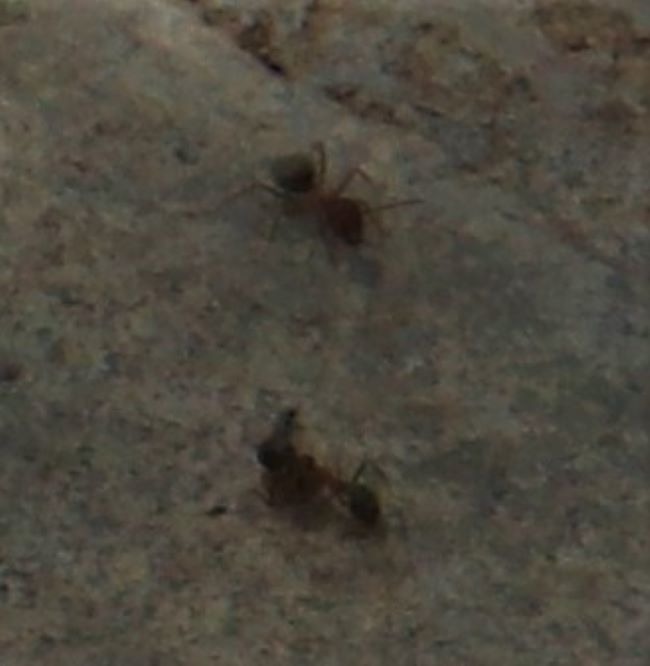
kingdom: Animalia
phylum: Arthropoda
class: Insecta
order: Hymenoptera
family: Formicidae
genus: Anoplolepis
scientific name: Anoplolepis custodiens
